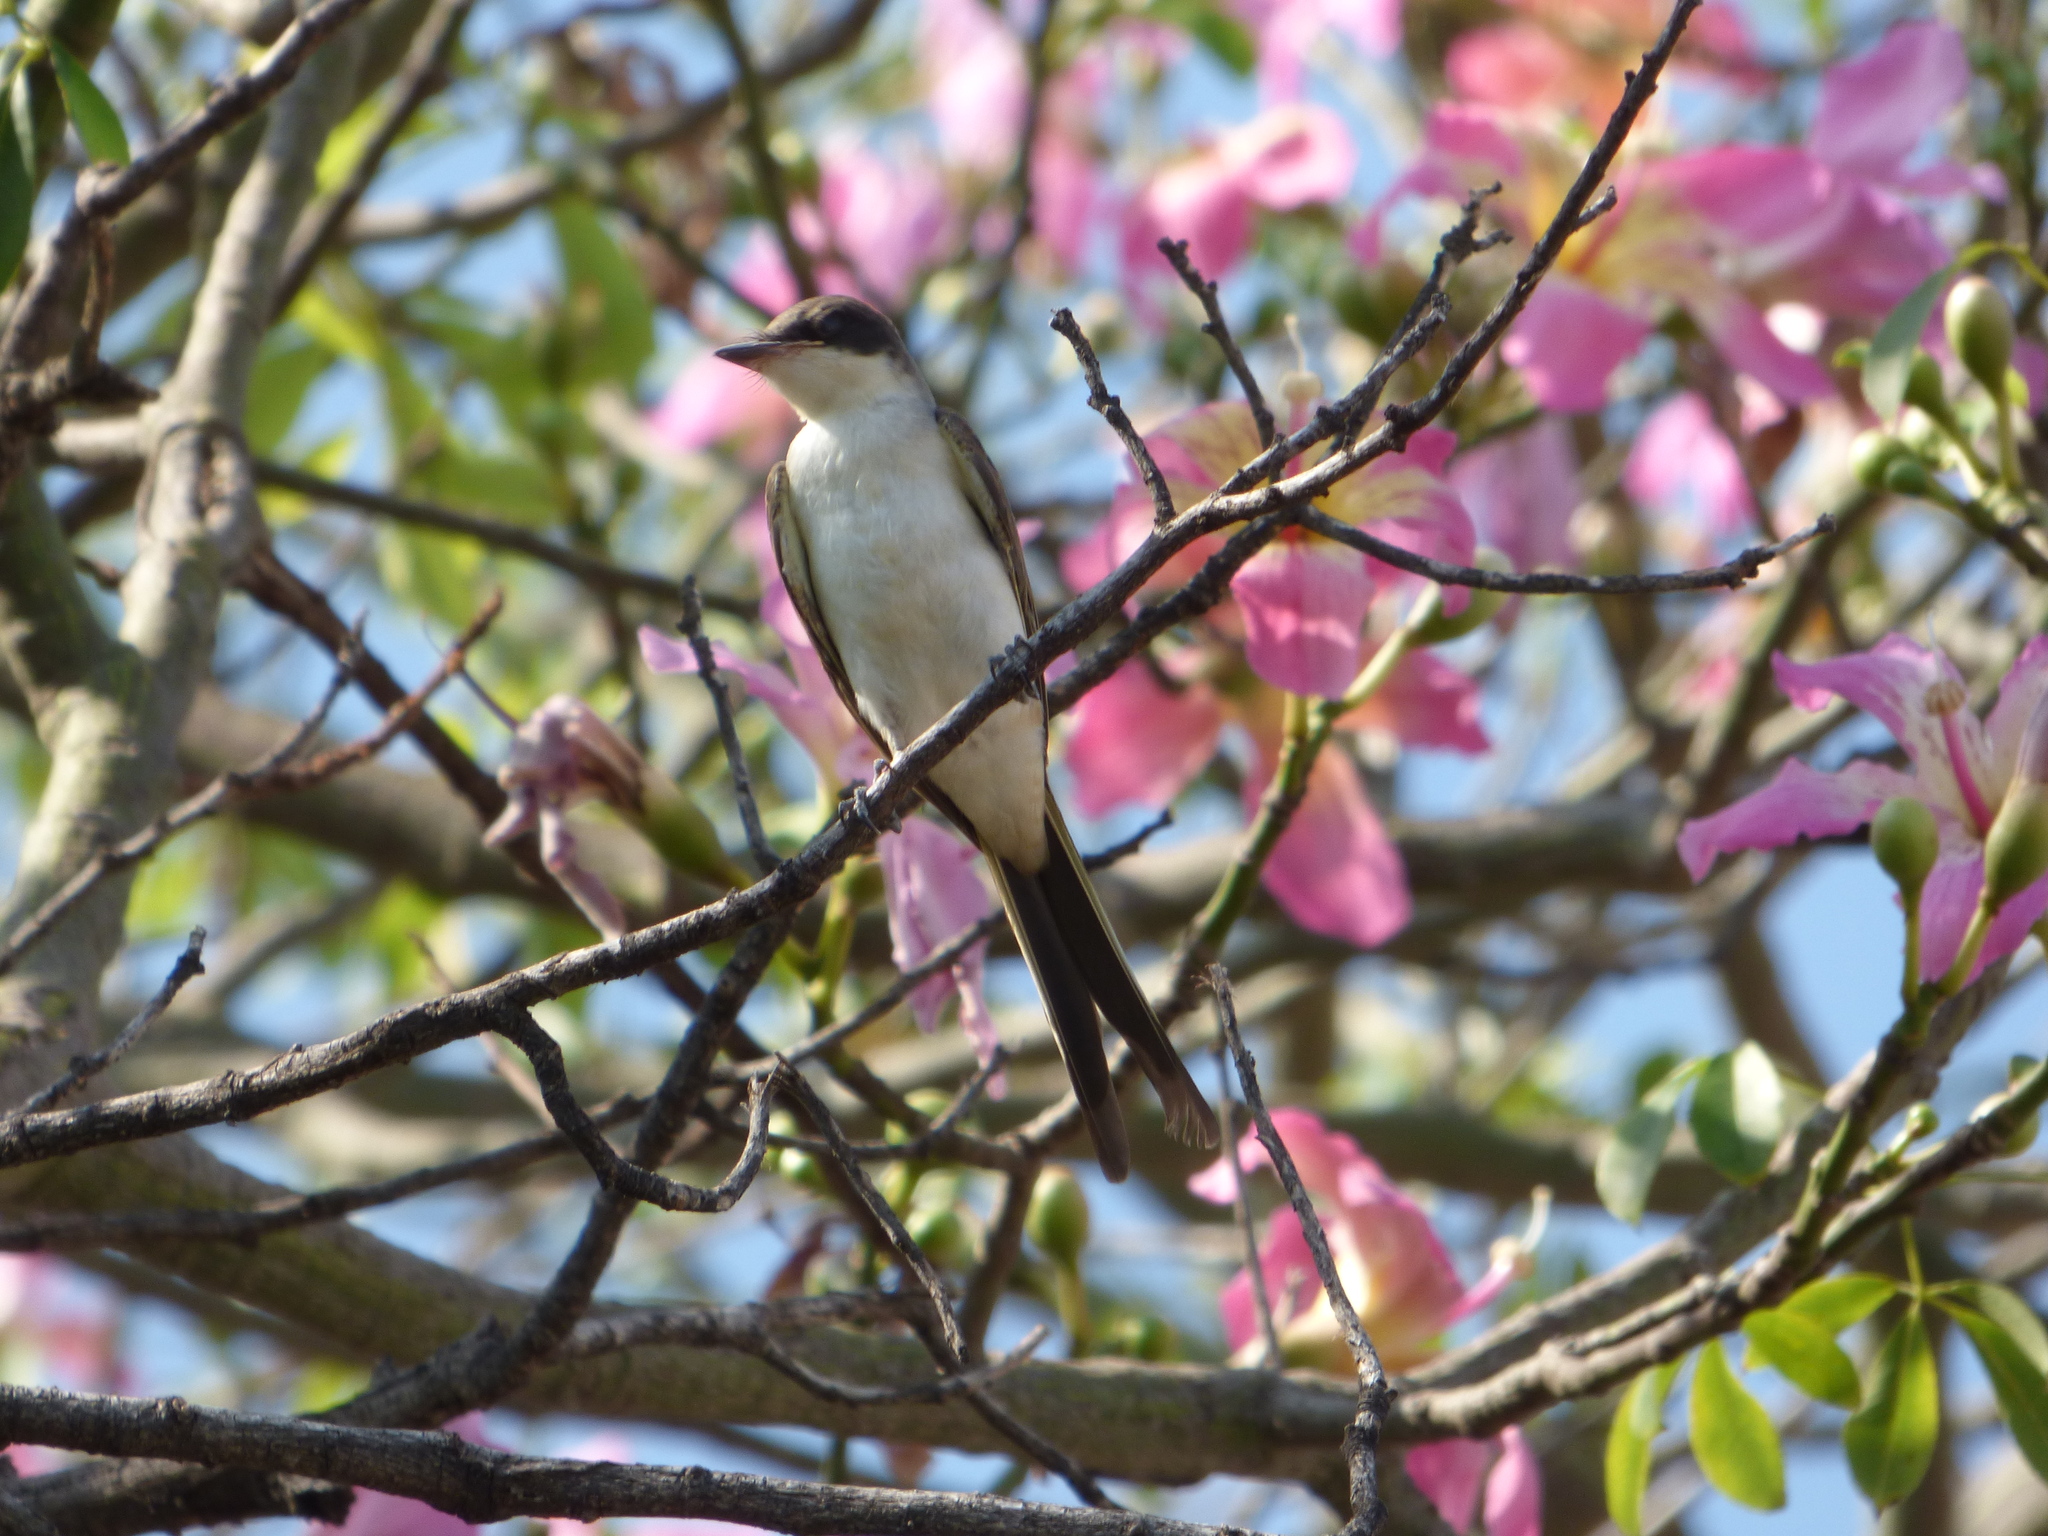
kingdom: Animalia
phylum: Chordata
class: Aves
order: Passeriformes
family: Tyrannidae
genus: Tyrannus
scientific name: Tyrannus savana
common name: Fork-tailed flycatcher
